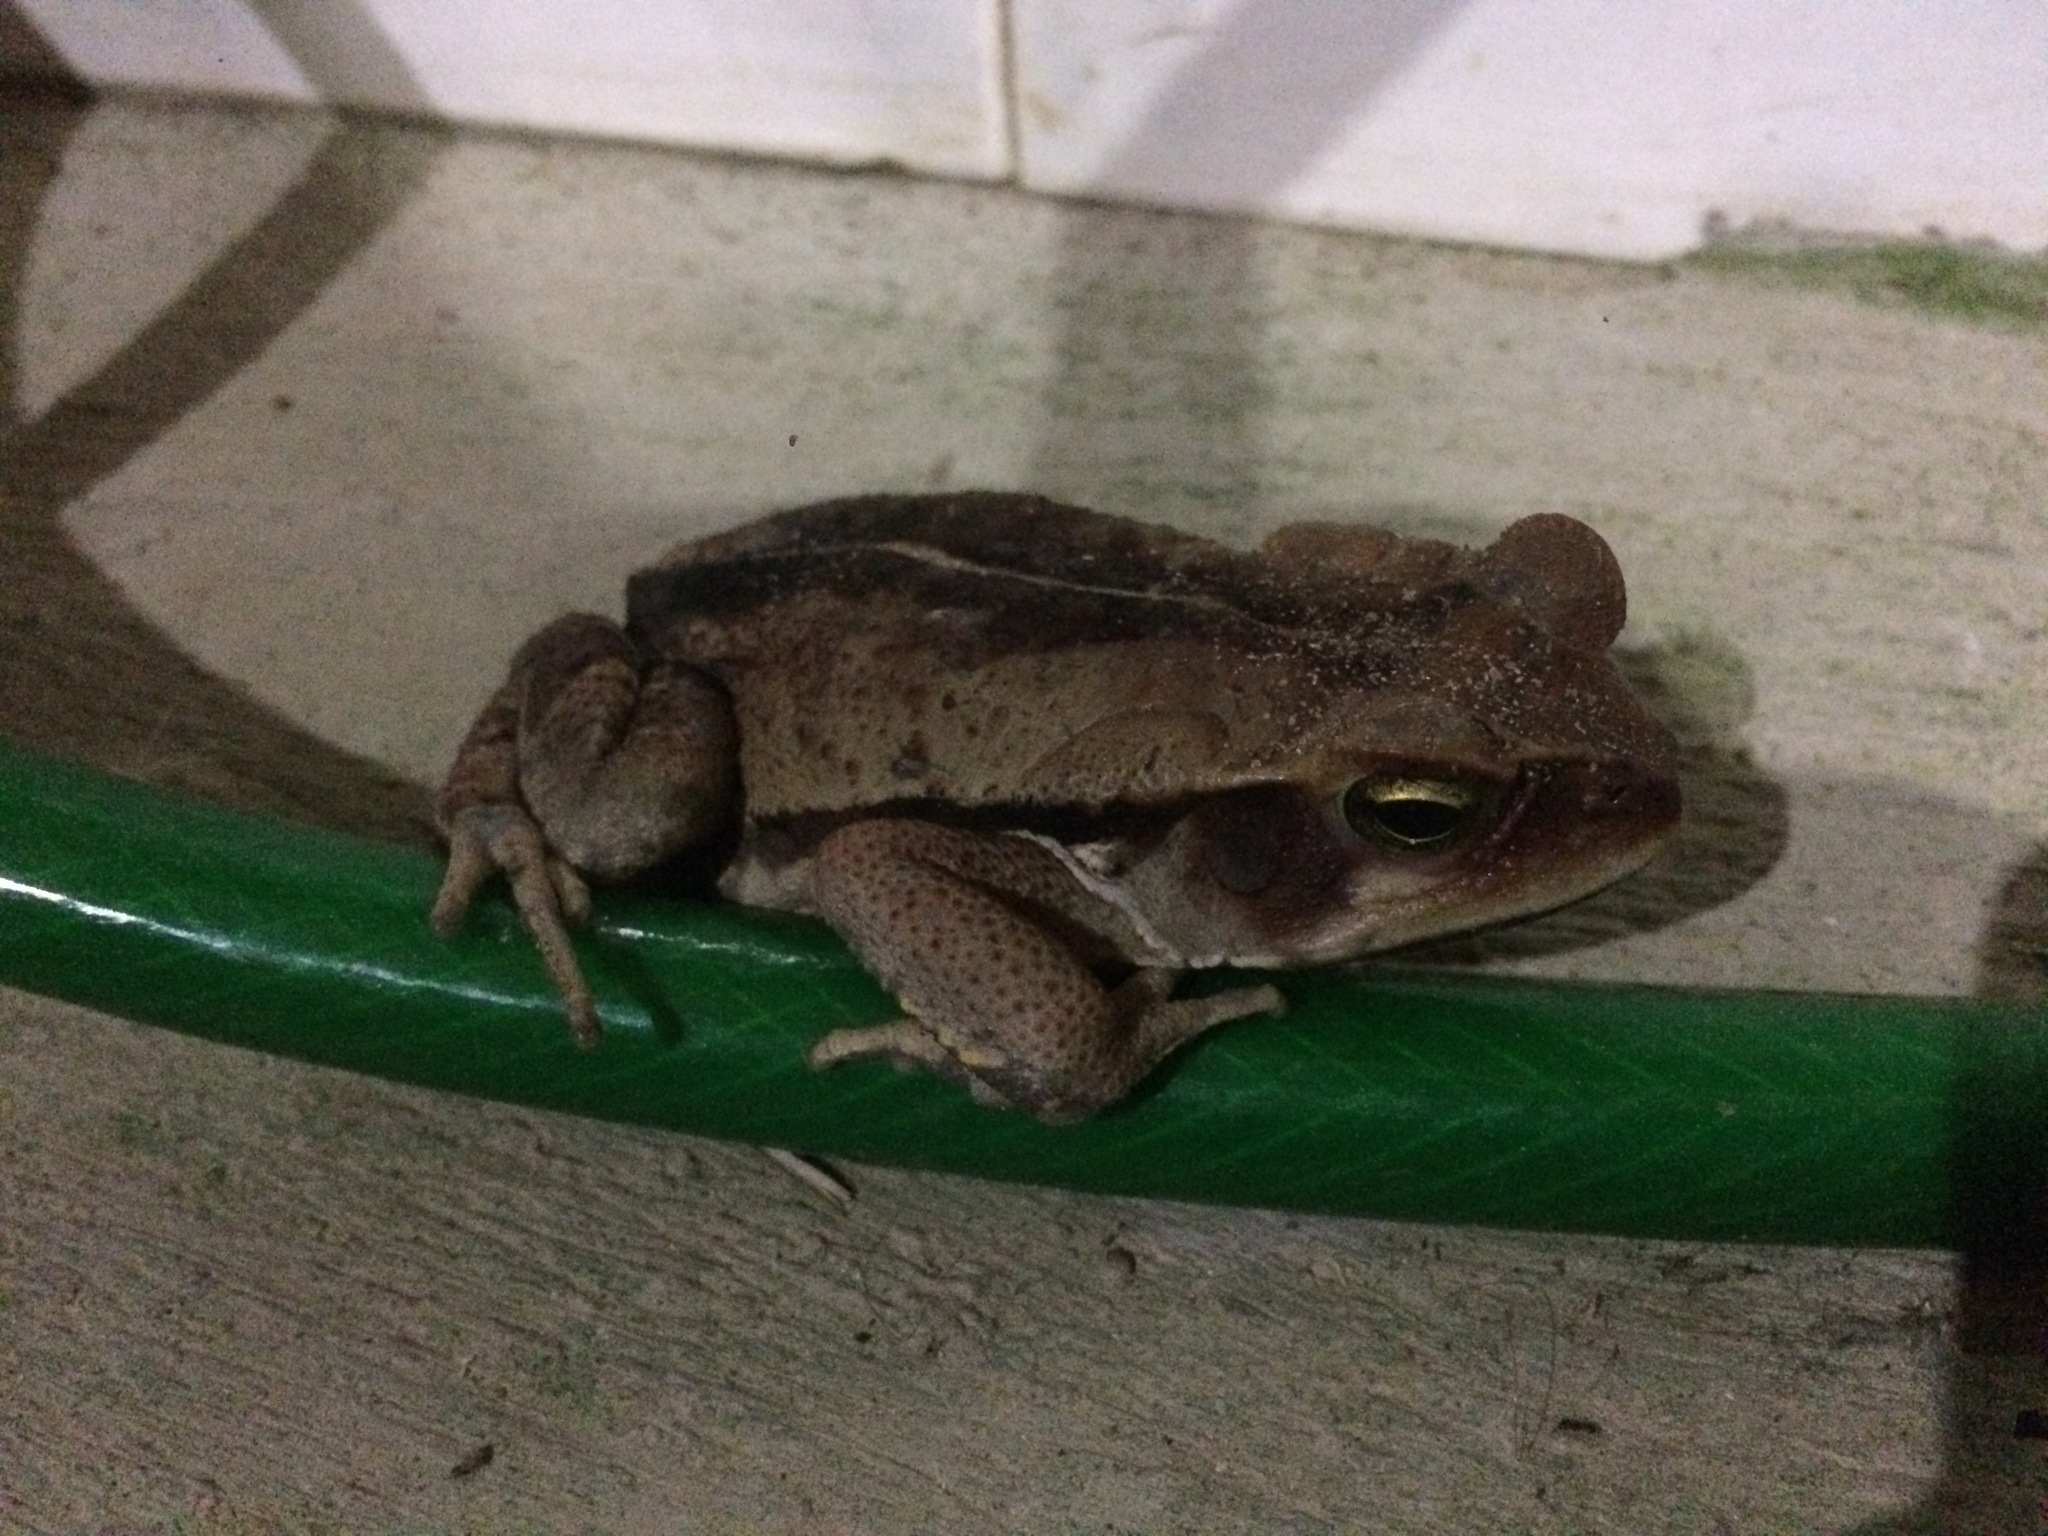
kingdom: Animalia
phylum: Chordata
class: Amphibia
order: Anura
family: Bufonidae
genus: Rhinella
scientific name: Rhinella crucifer
